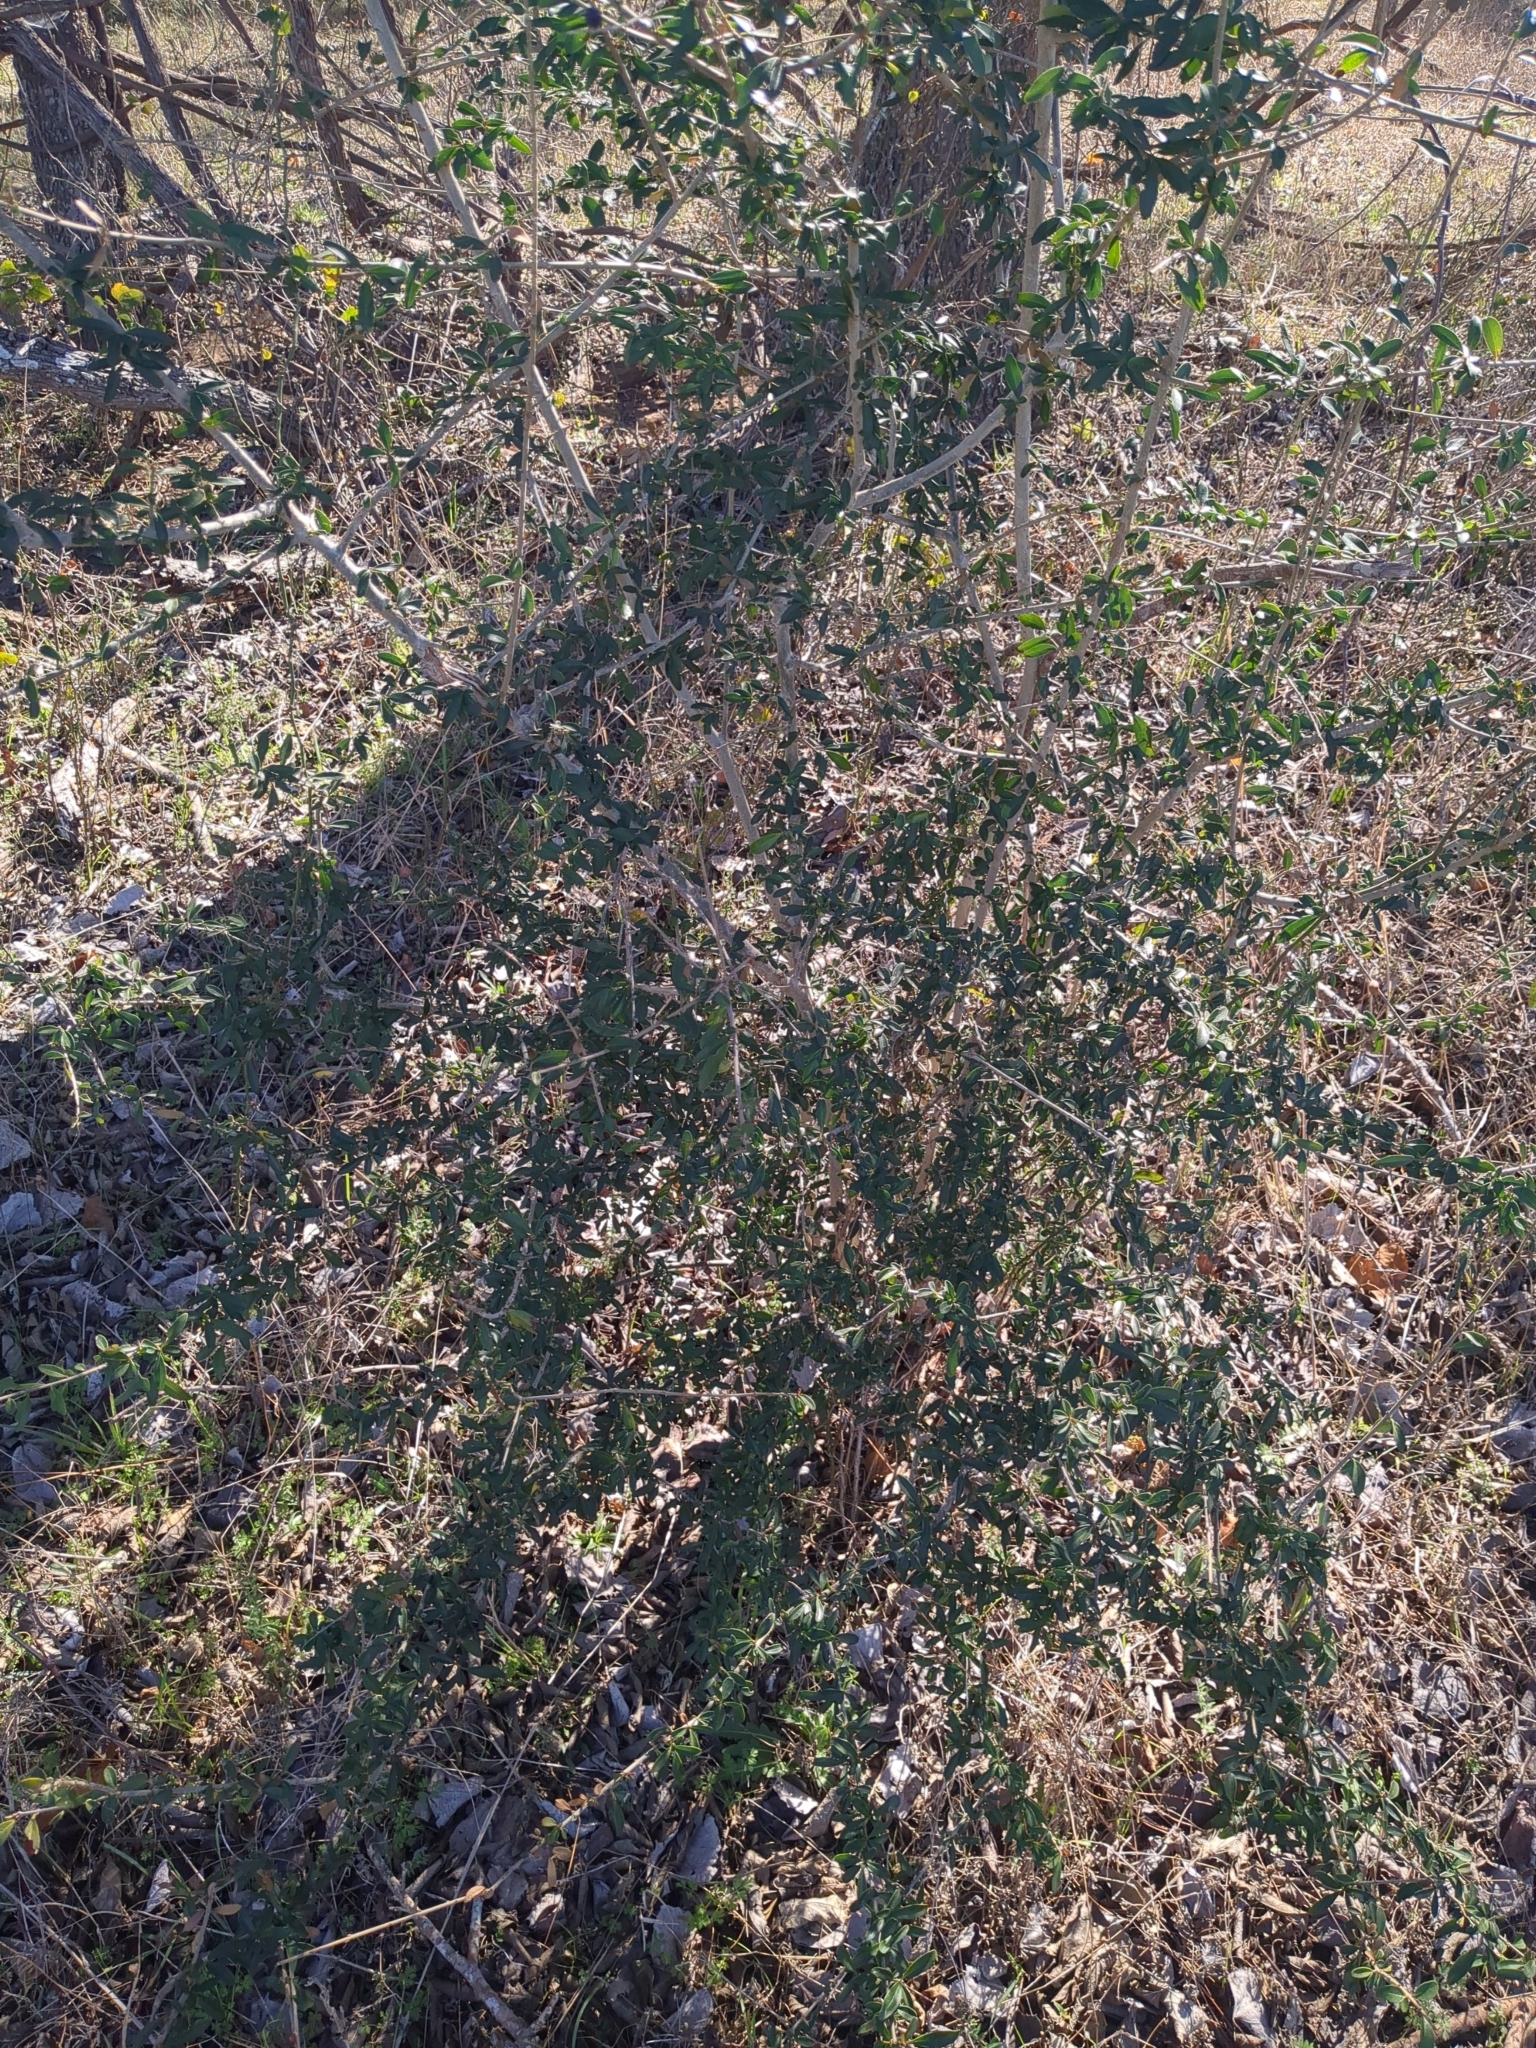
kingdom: Plantae
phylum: Tracheophyta
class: Magnoliopsida
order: Lamiales
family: Oleaceae
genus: Ligustrum
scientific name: Ligustrum quihoui
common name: Waxyleaf privet
